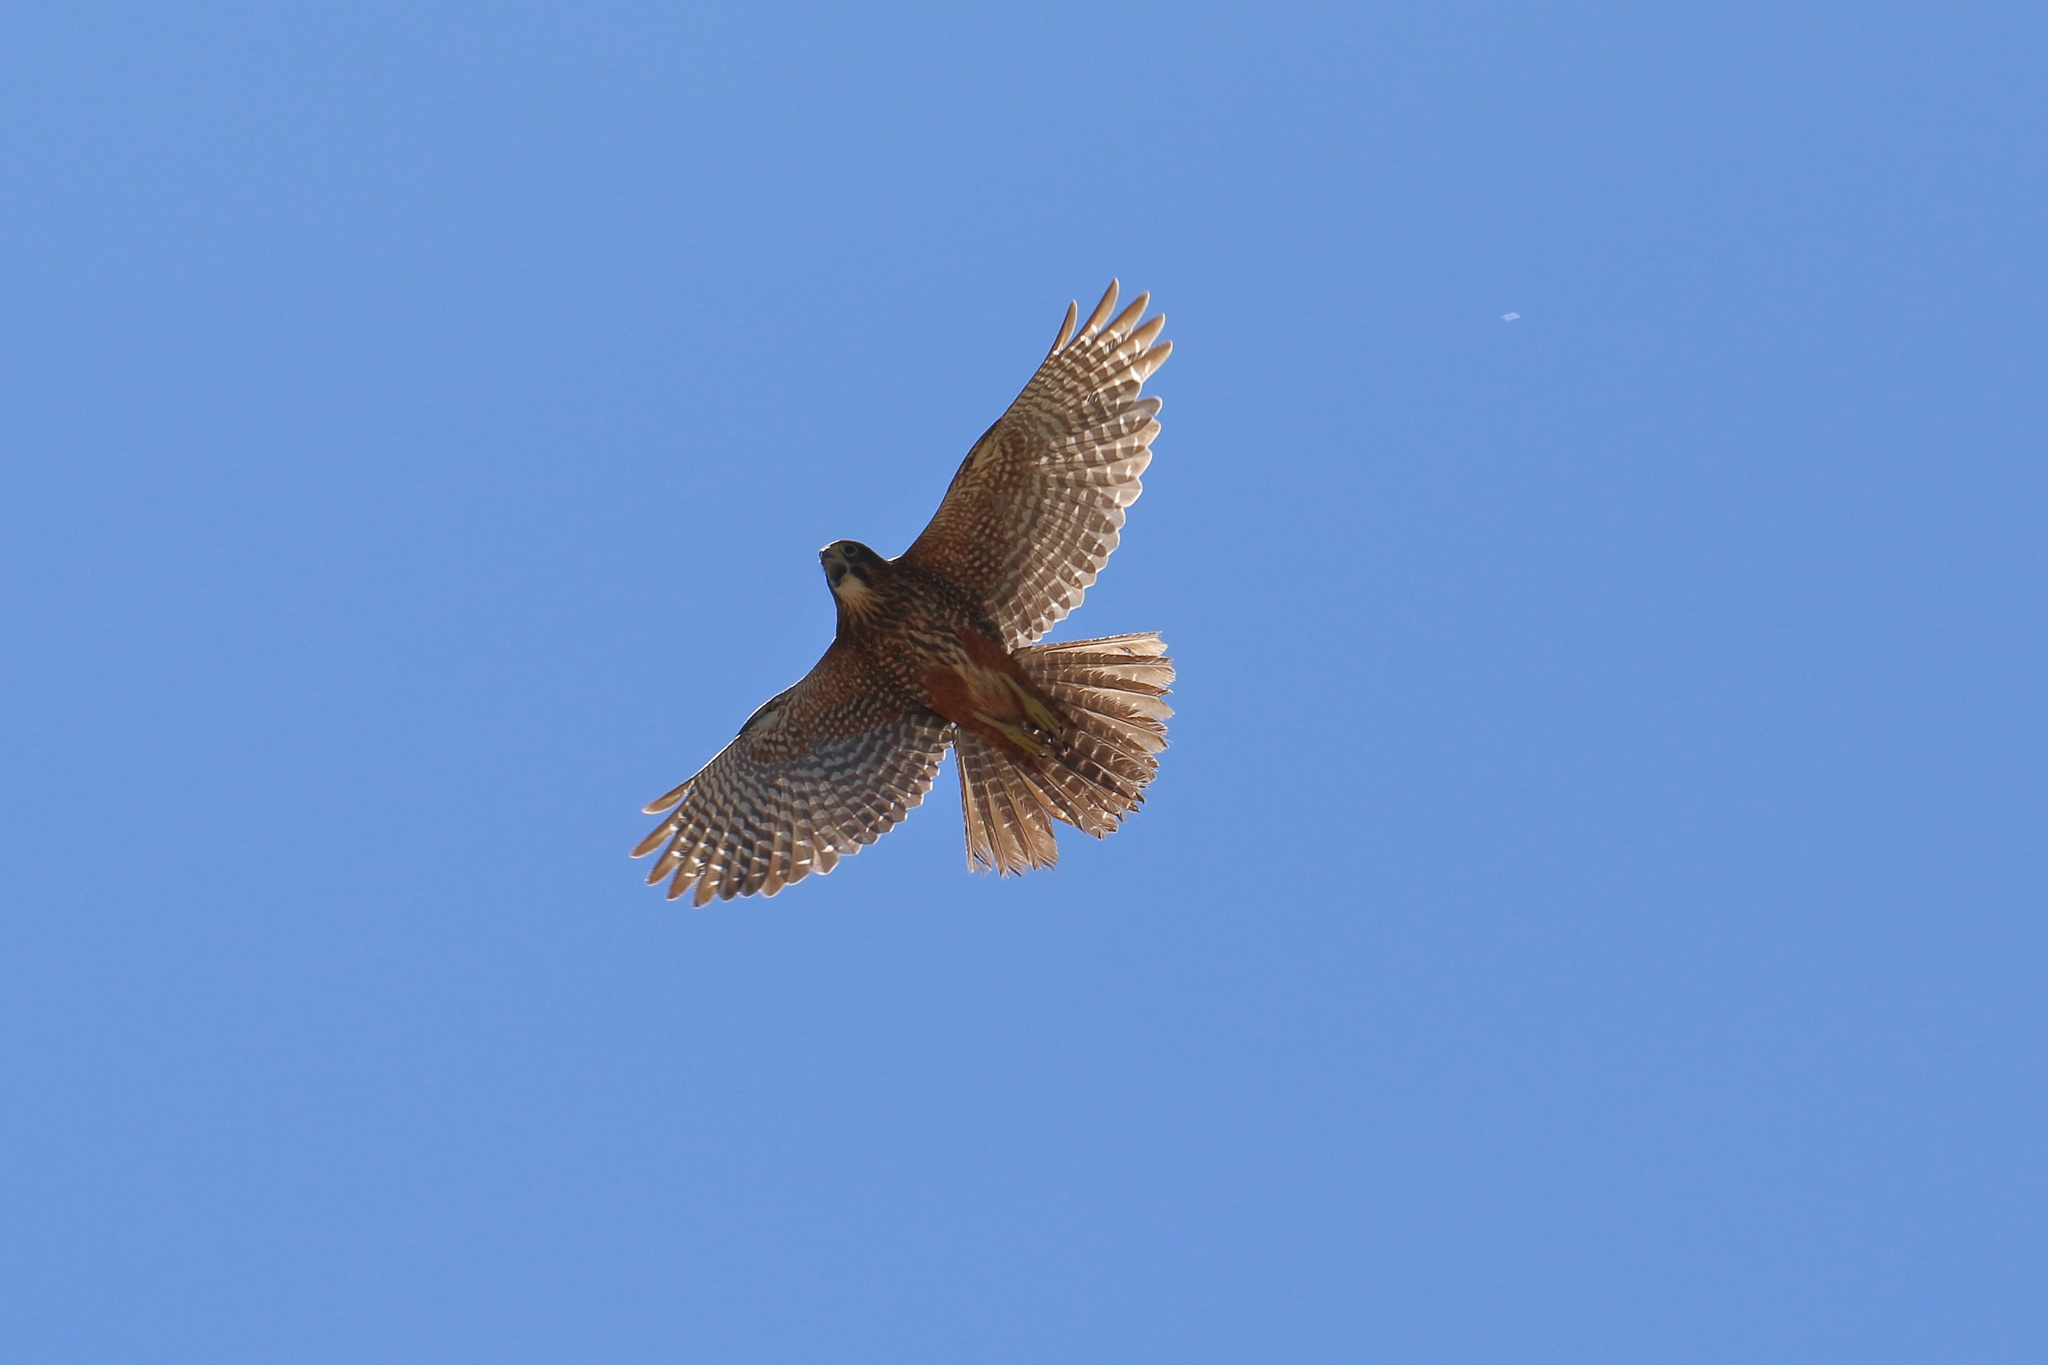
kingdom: Animalia
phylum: Chordata
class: Aves
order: Falconiformes
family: Falconidae
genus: Falco
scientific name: Falco novaeseelandiae
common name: New zealand falcon
